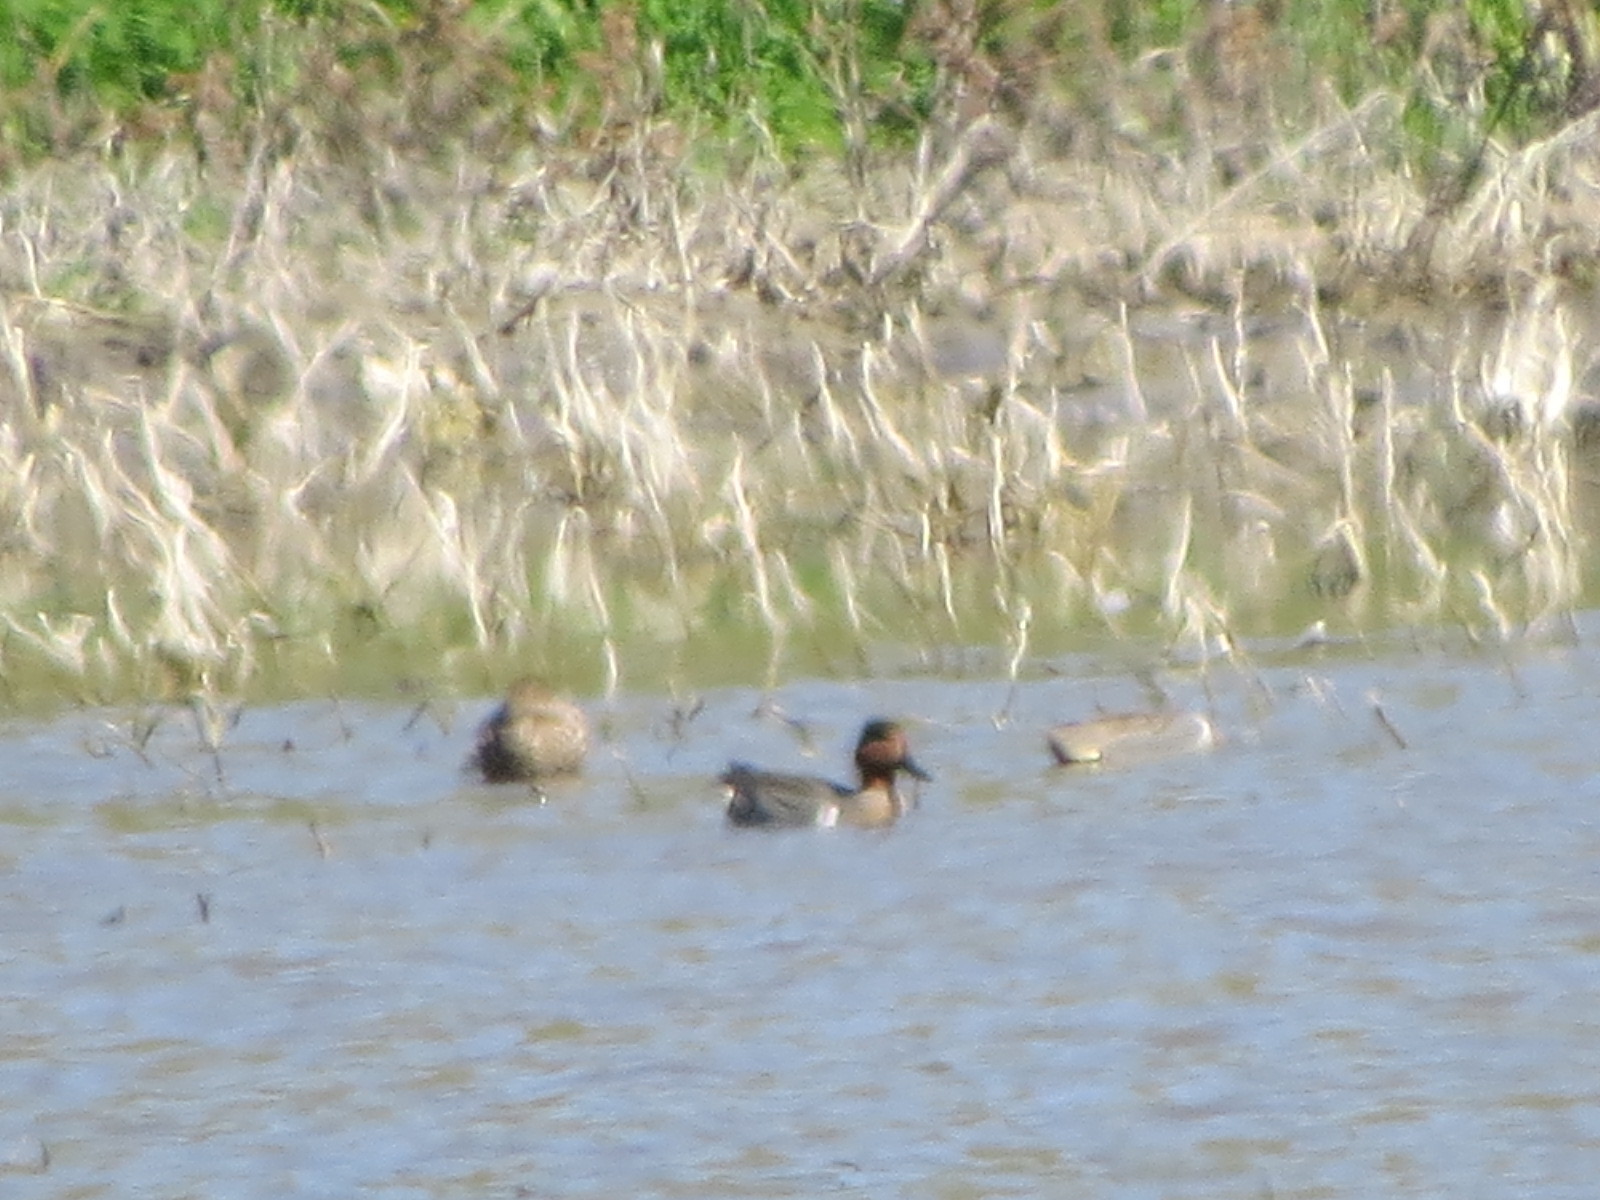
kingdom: Animalia
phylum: Chordata
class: Aves
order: Anseriformes
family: Anatidae
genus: Anas
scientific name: Anas crecca
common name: Eurasian teal
